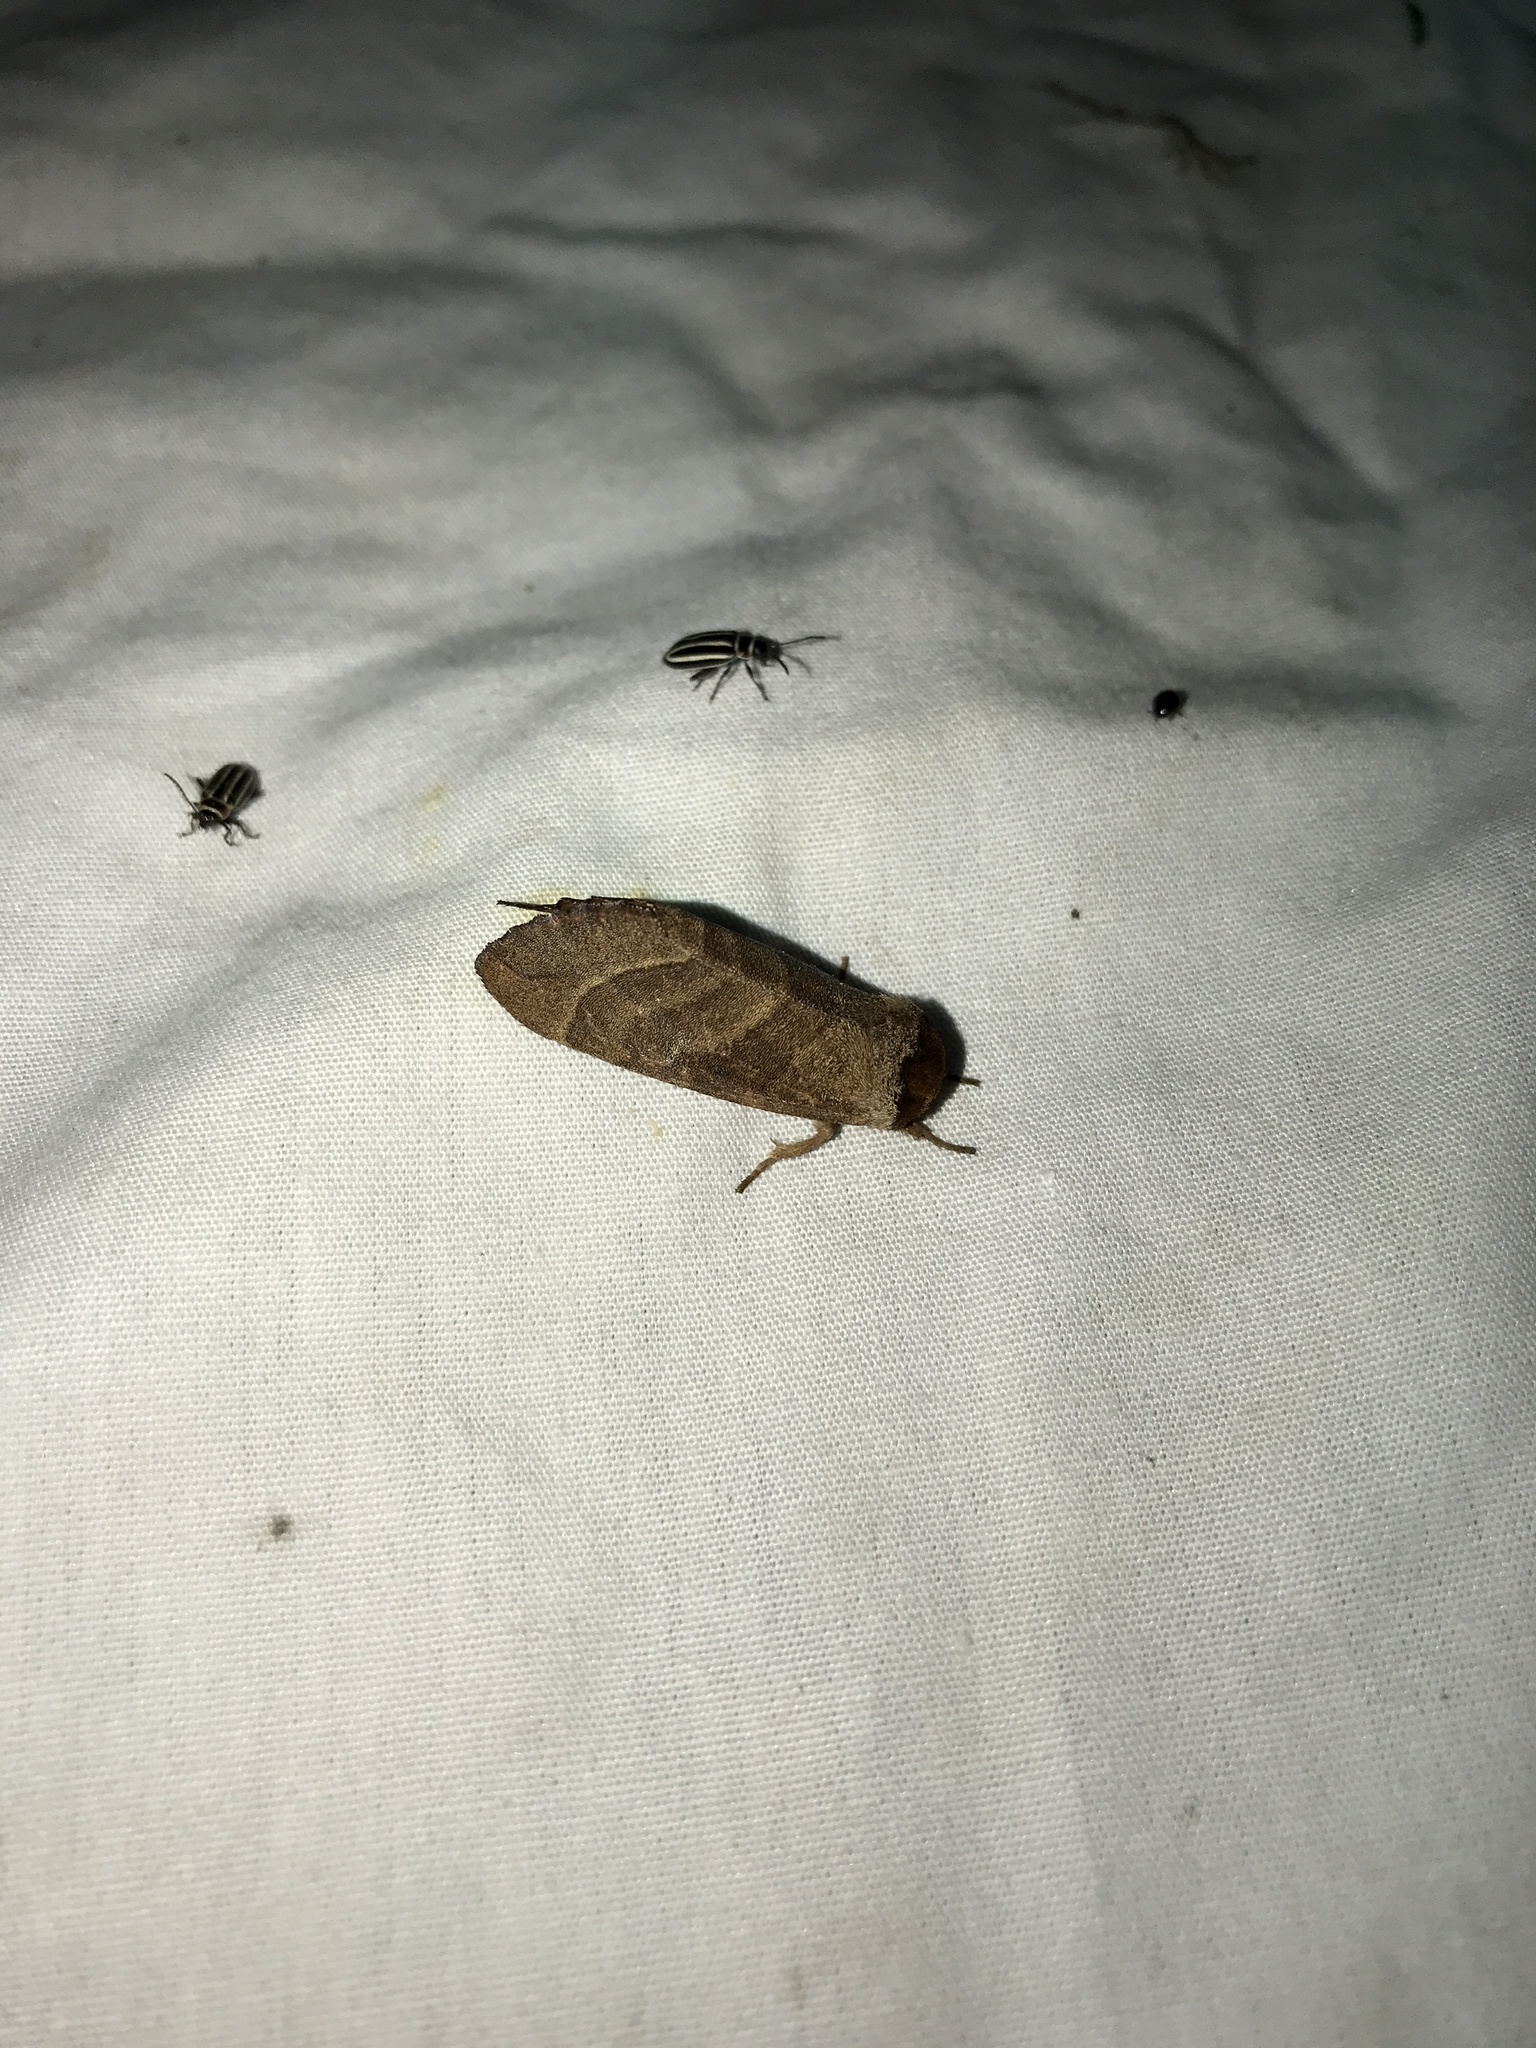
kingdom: Animalia
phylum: Arthropoda
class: Insecta
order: Lepidoptera
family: Notodontidae
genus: Datana
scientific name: Datana integerrima
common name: Walnut caterpillar
